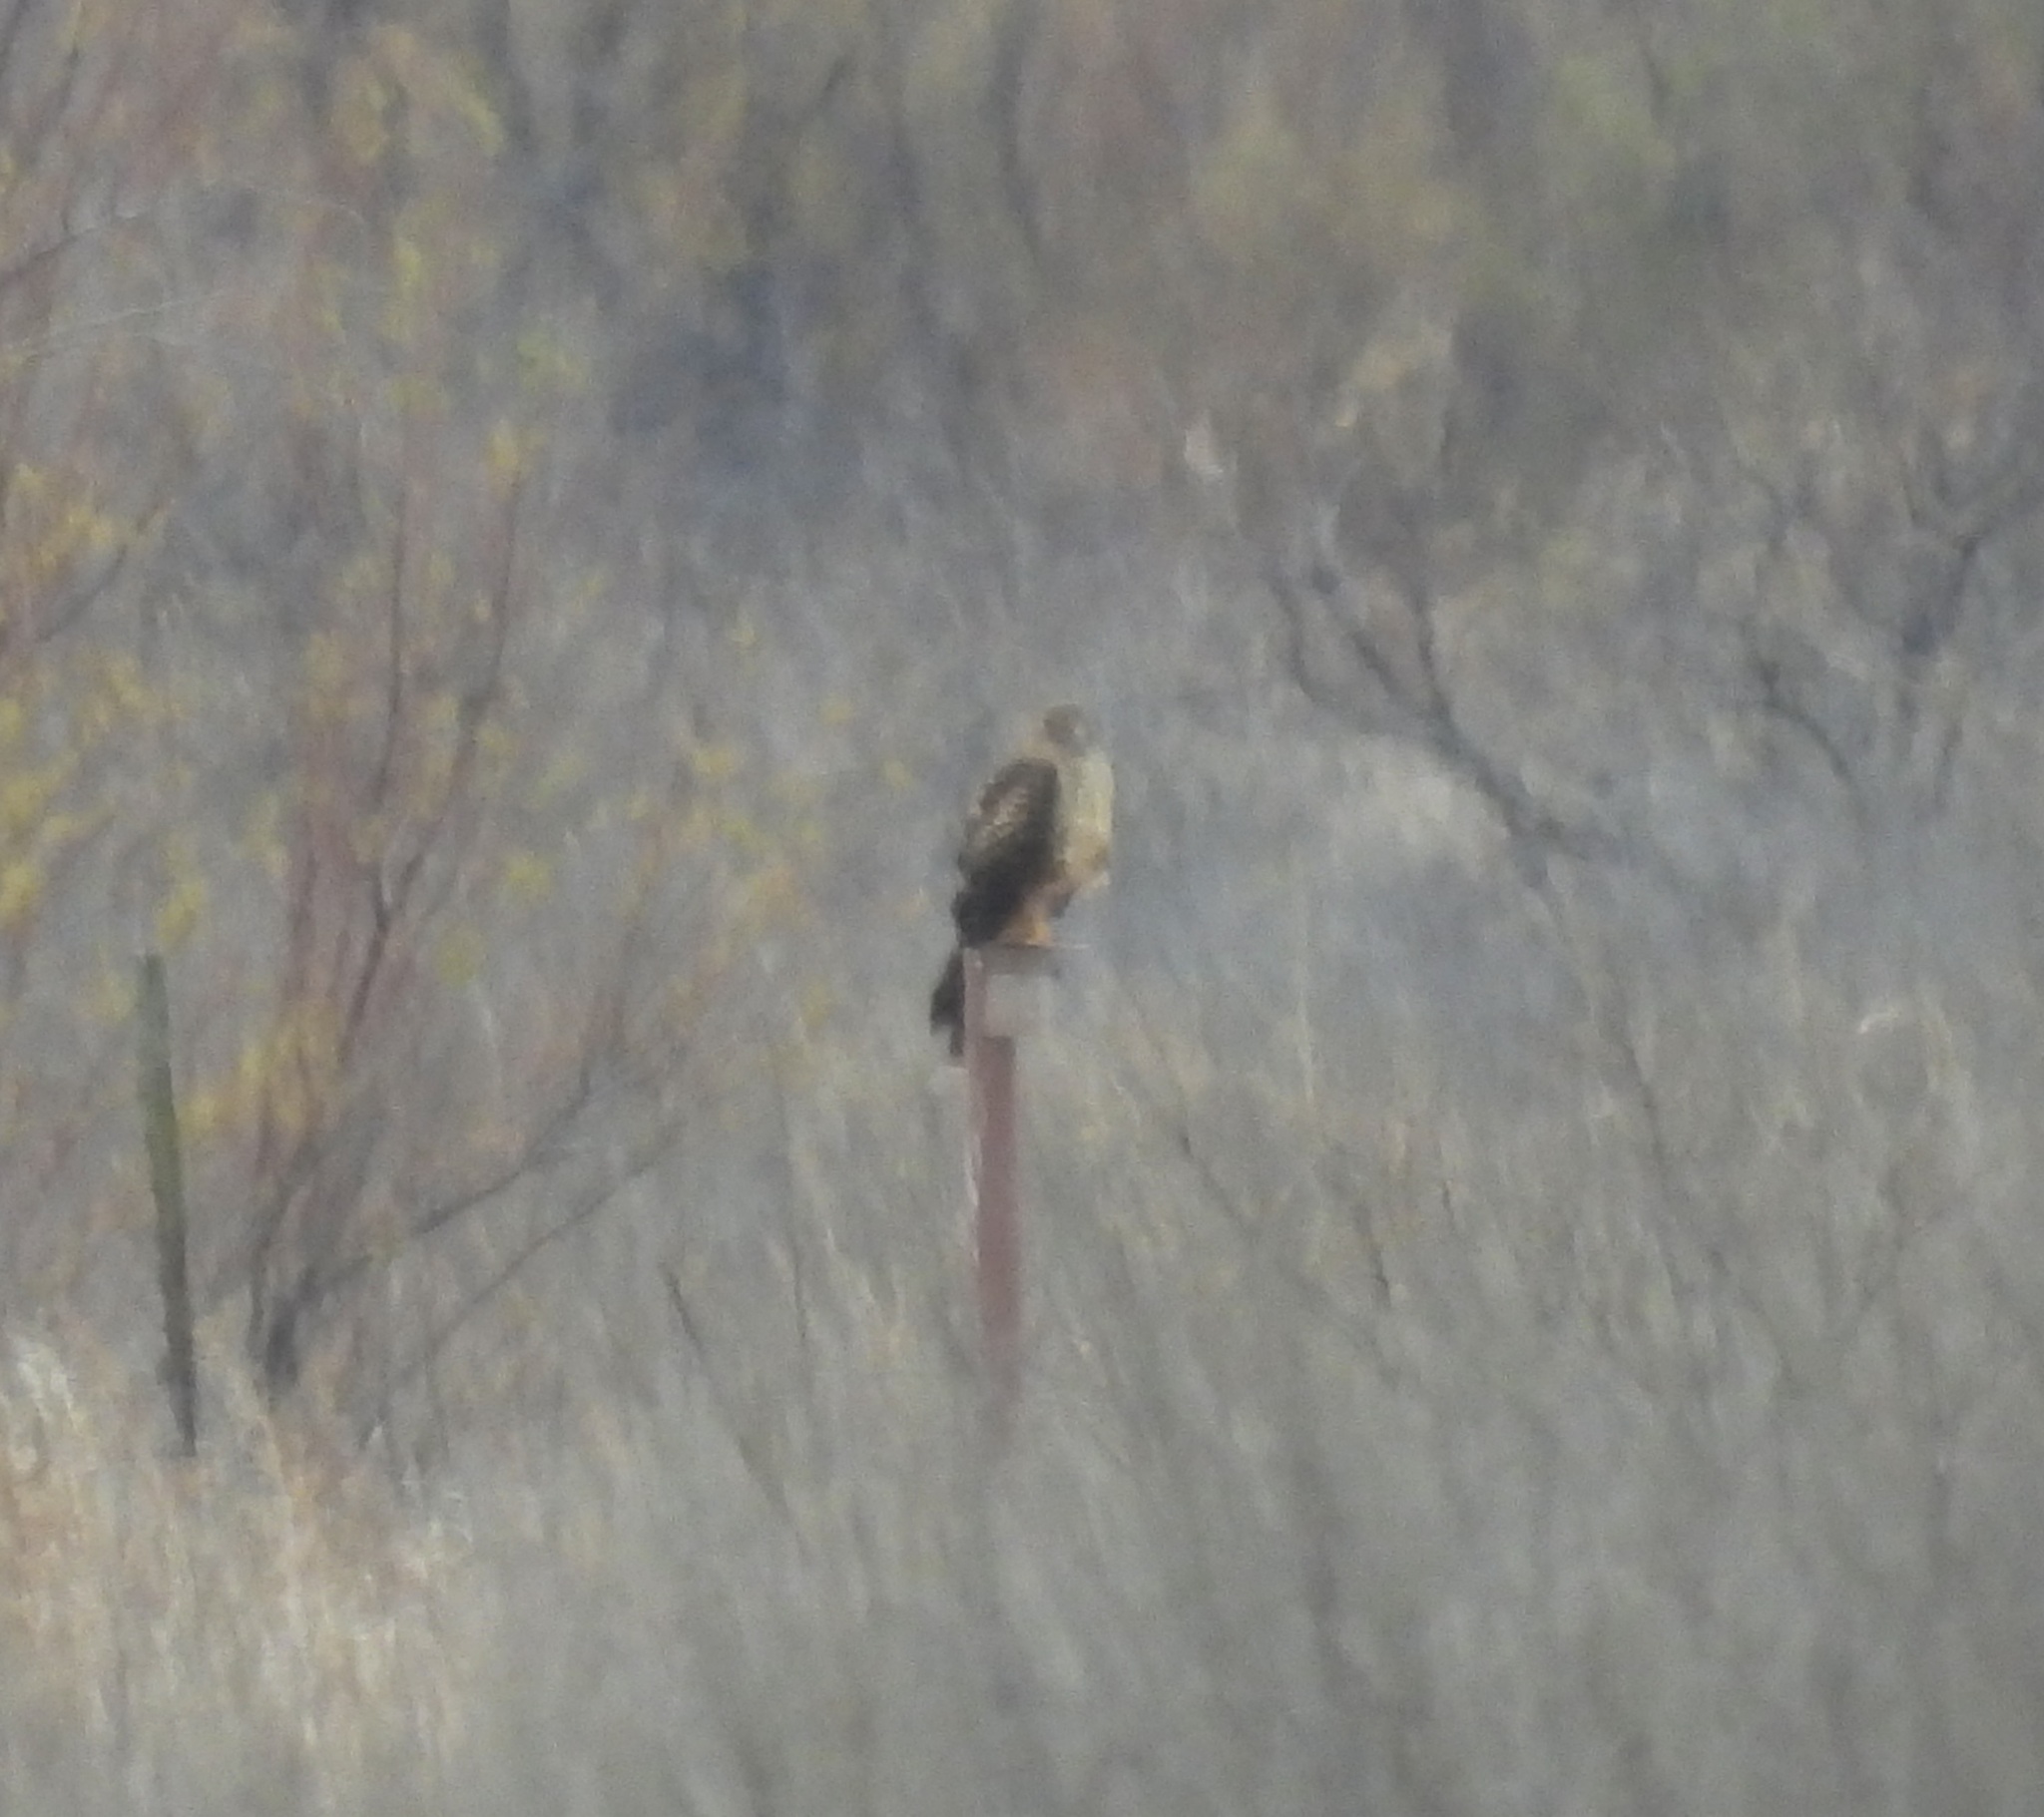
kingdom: Animalia
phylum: Chordata
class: Aves
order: Accipitriformes
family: Accipitridae
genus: Circus
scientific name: Circus cyaneus
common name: Hen harrier
